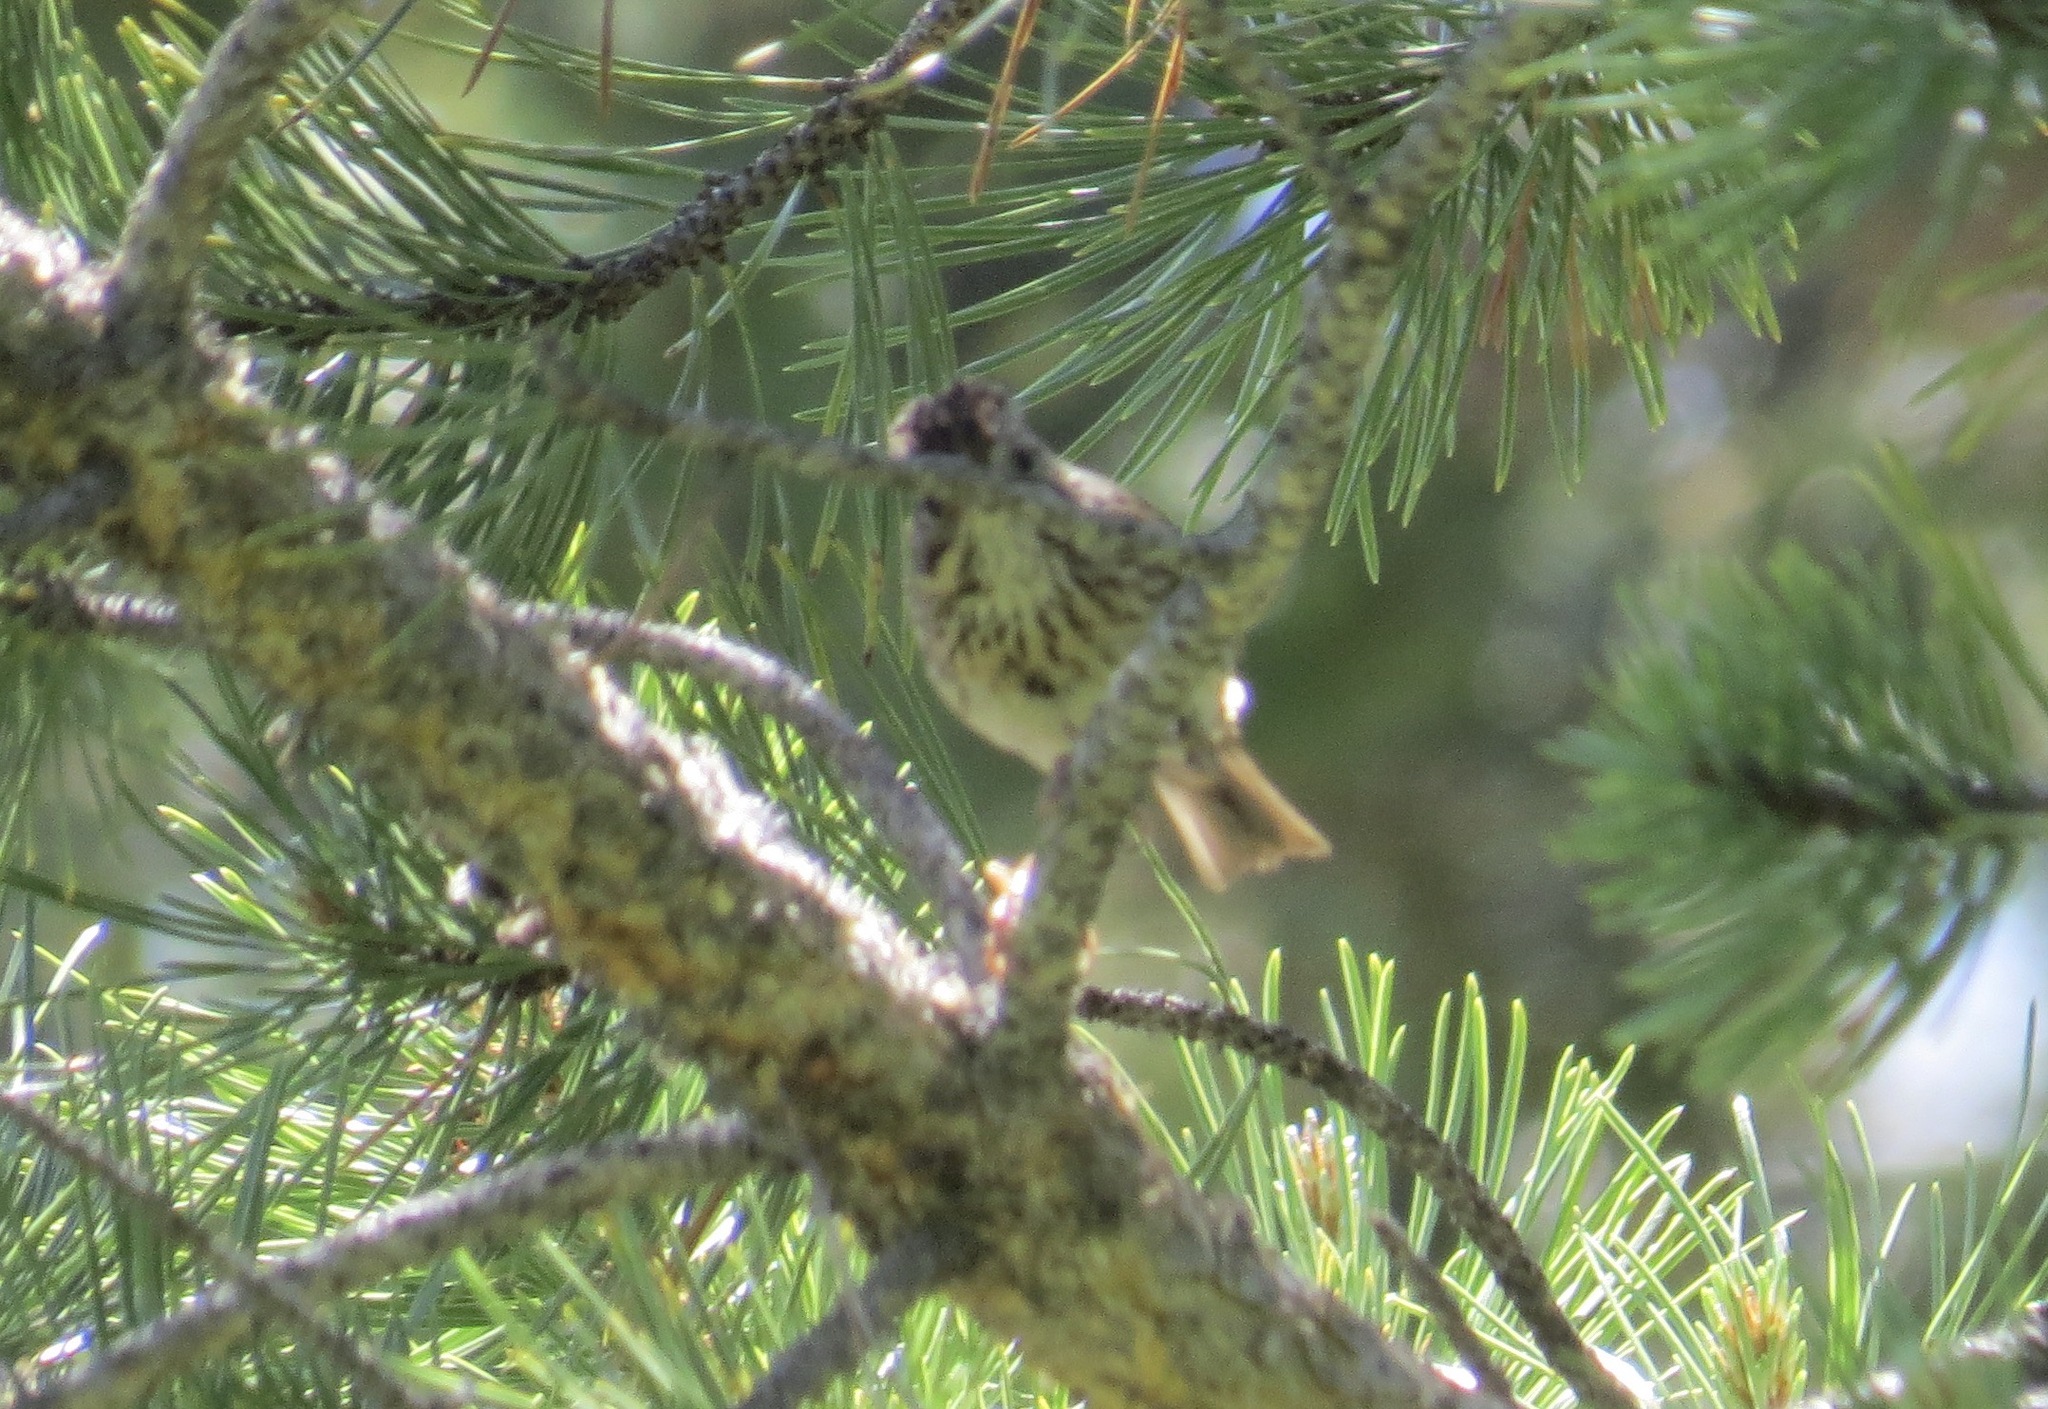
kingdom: Animalia
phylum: Chordata
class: Aves
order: Passeriformes
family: Passerellidae
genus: Melospiza
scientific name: Melospiza lincolnii
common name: Lincoln's sparrow
